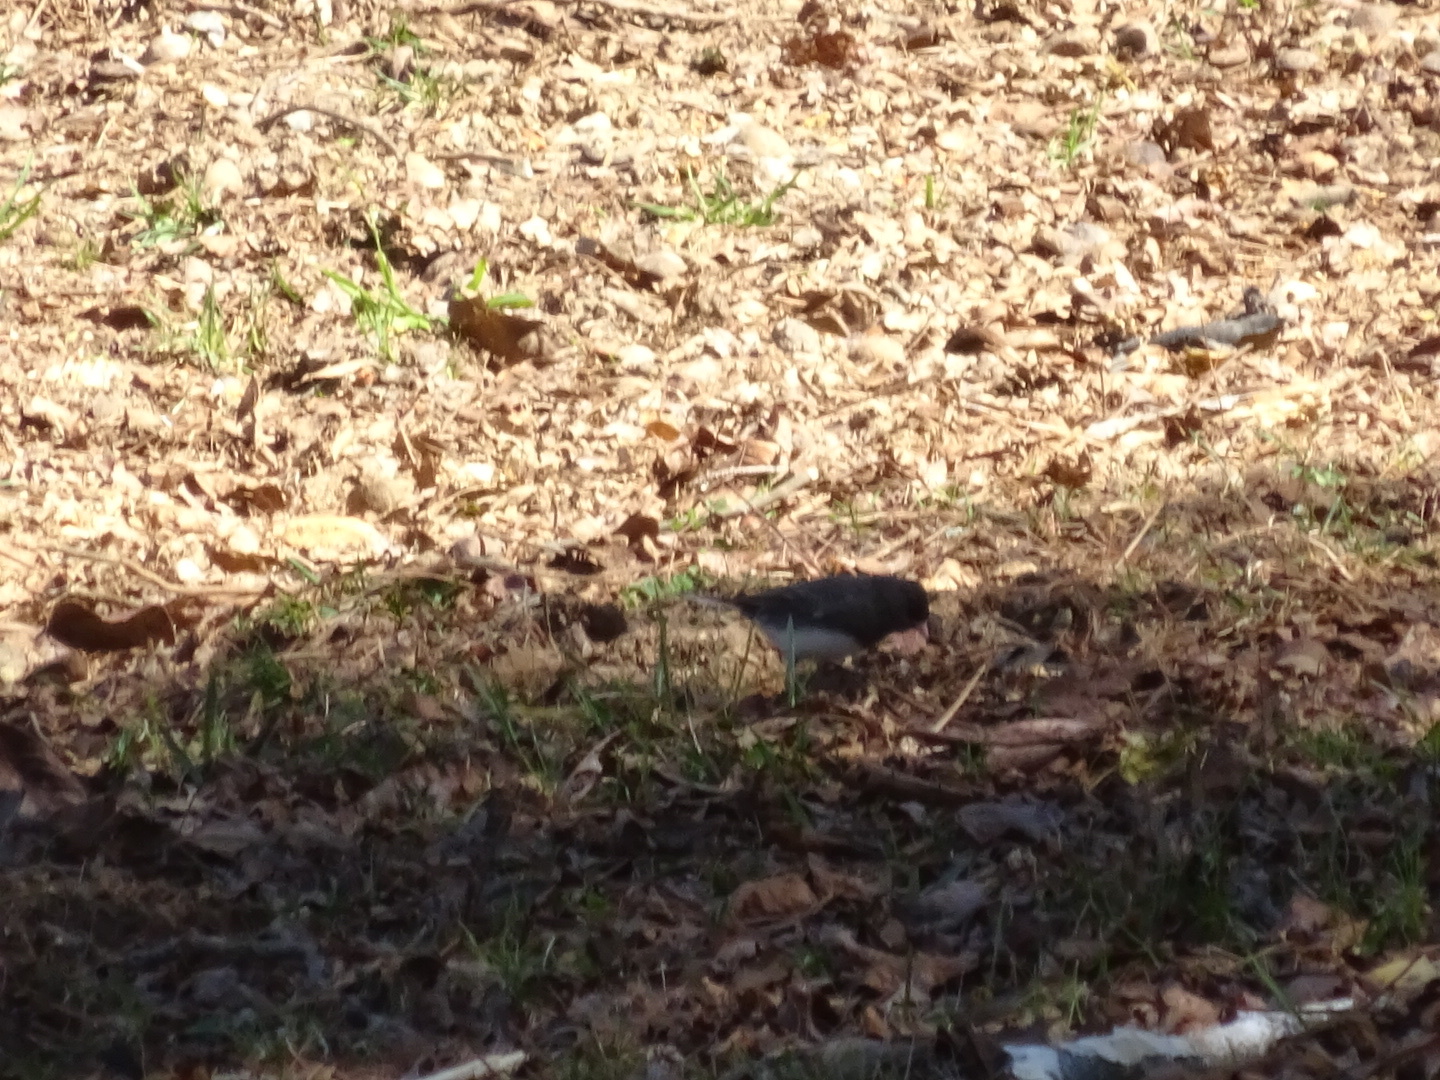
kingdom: Animalia
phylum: Chordata
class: Aves
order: Passeriformes
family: Passerellidae
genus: Junco
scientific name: Junco hyemalis
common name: Dark-eyed junco
